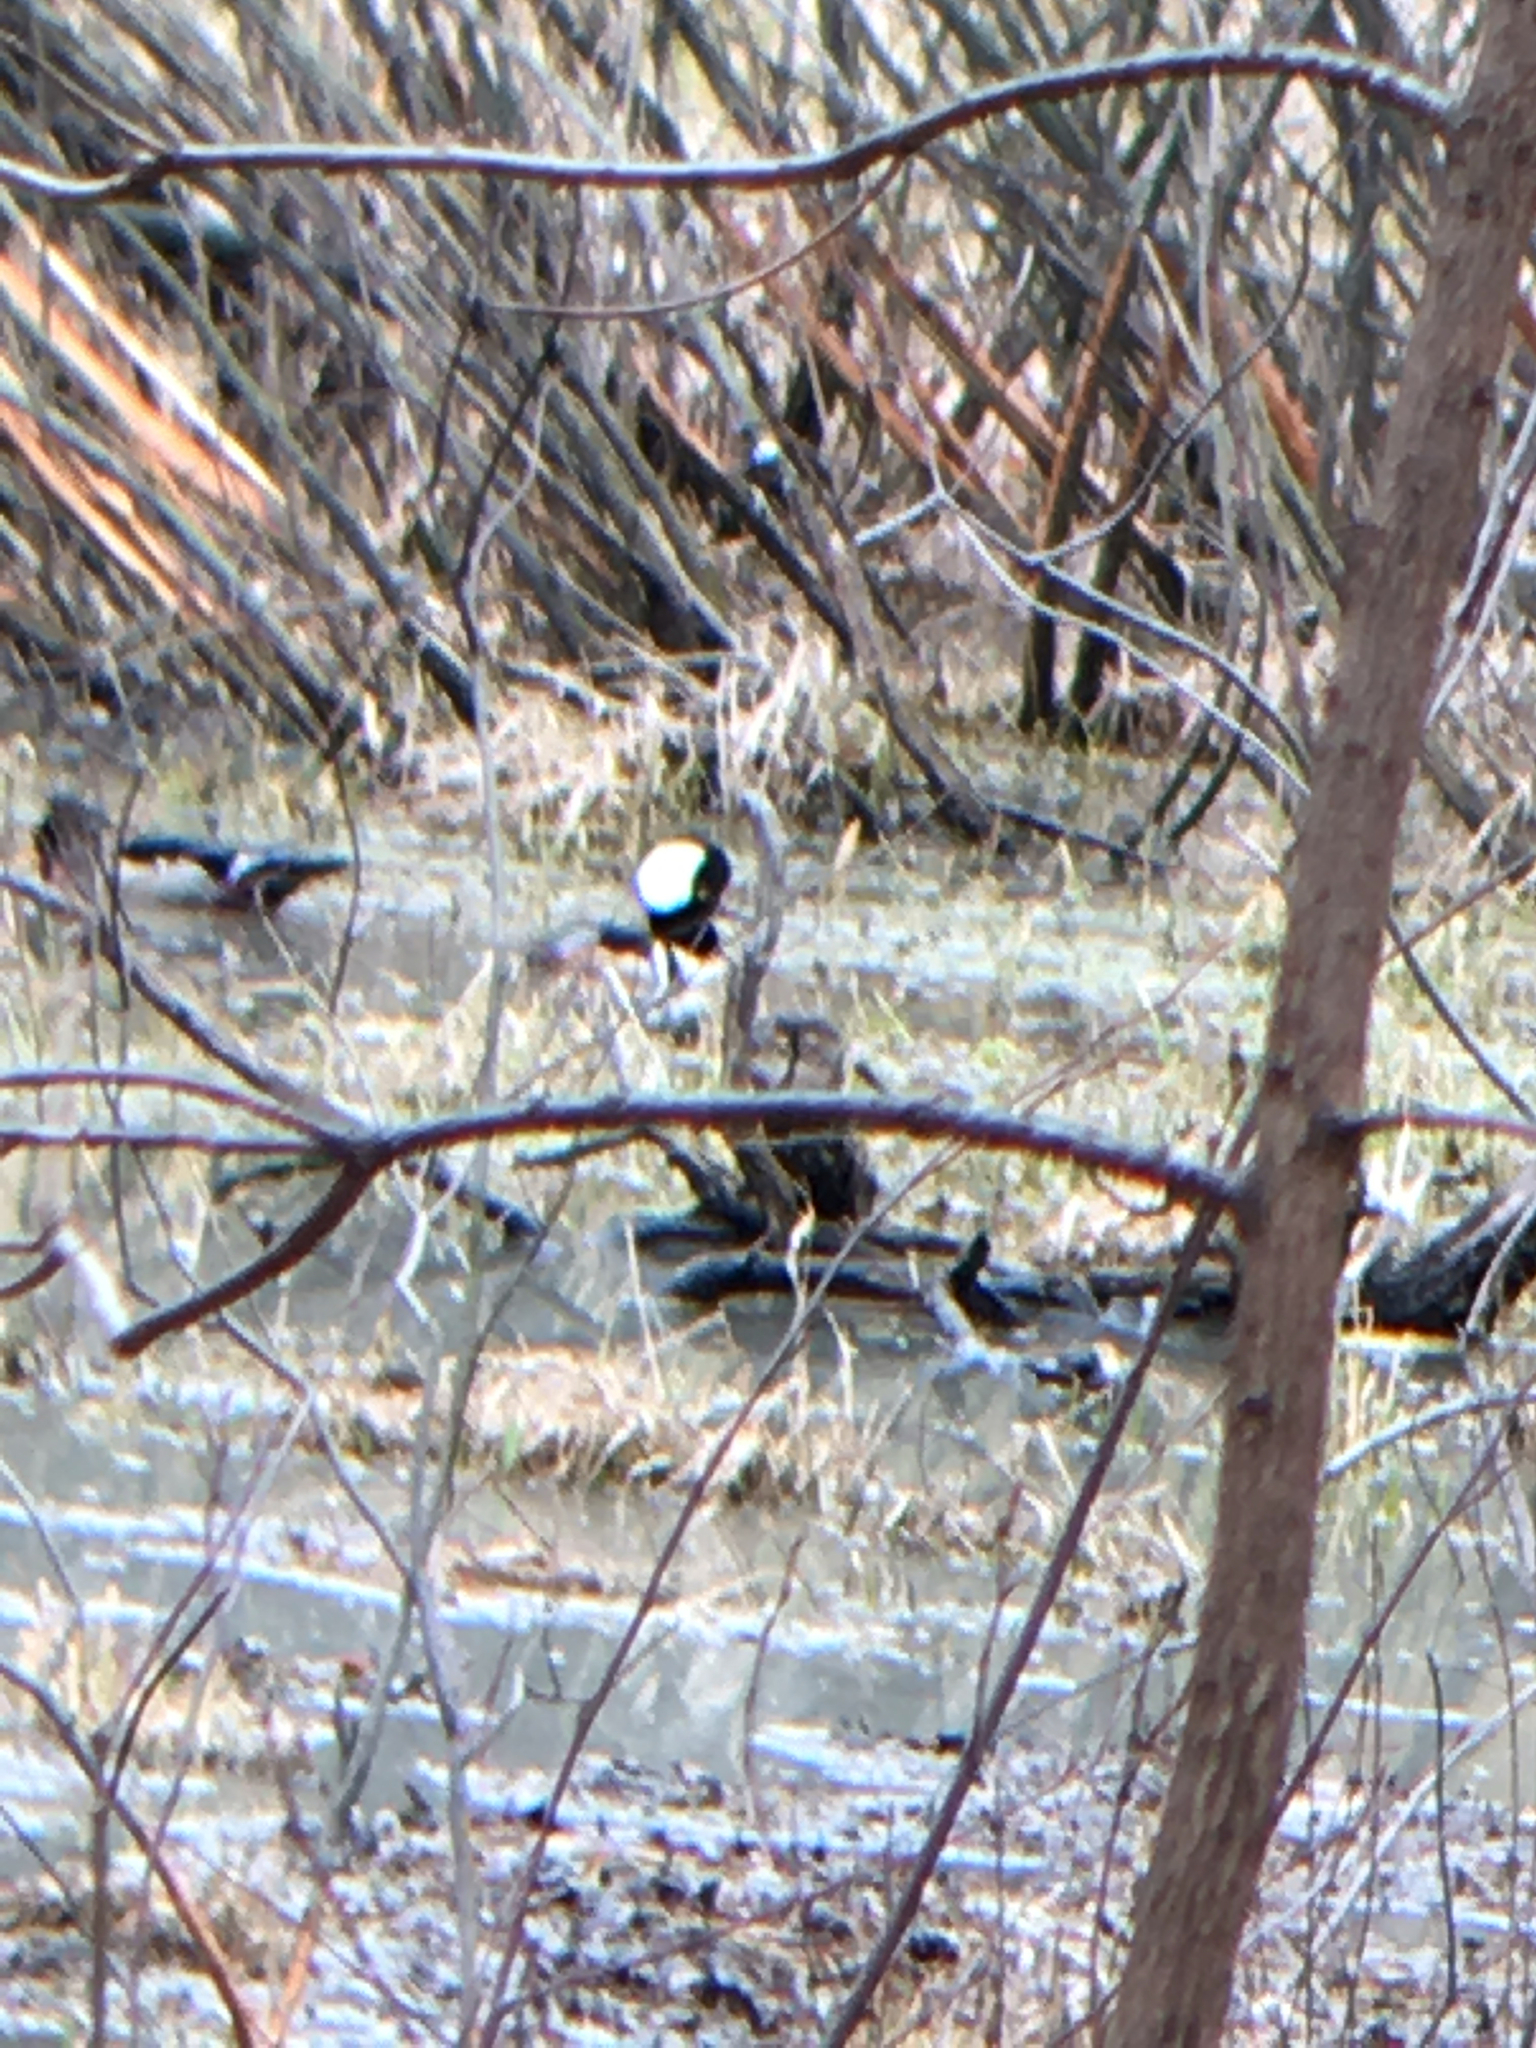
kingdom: Animalia
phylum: Chordata
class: Aves
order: Anseriformes
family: Anatidae
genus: Lophodytes
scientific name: Lophodytes cucullatus
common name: Hooded merganser
